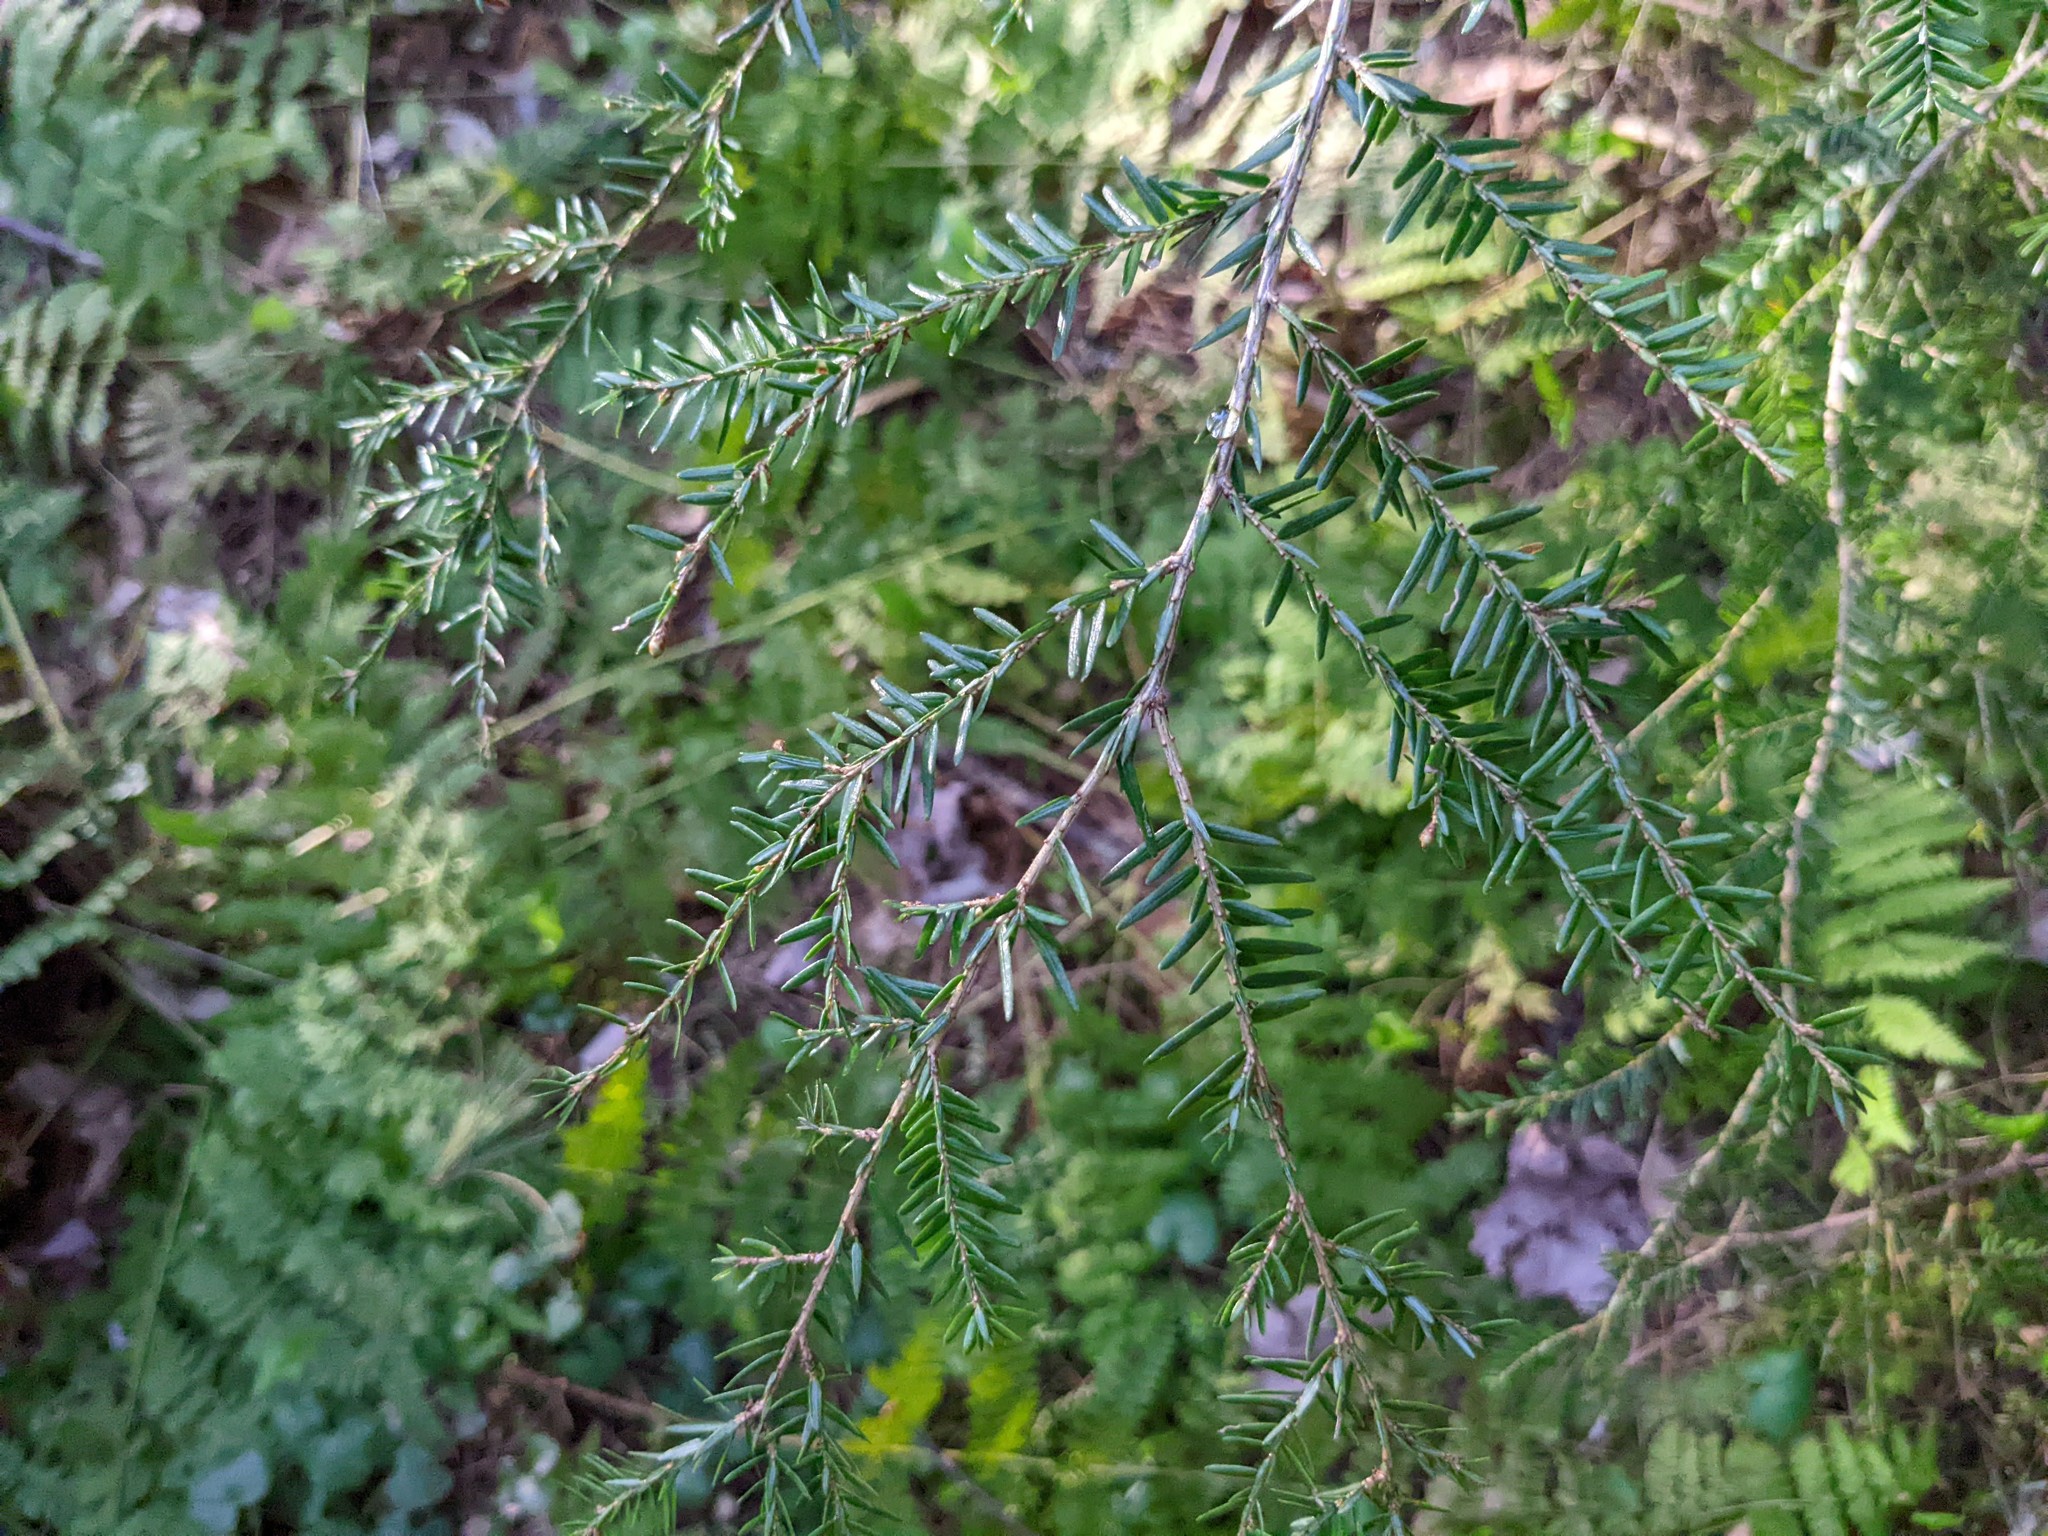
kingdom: Plantae
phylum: Tracheophyta
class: Pinopsida
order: Pinales
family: Pinaceae
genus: Tsuga
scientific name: Tsuga canadensis
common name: Eastern hemlock
